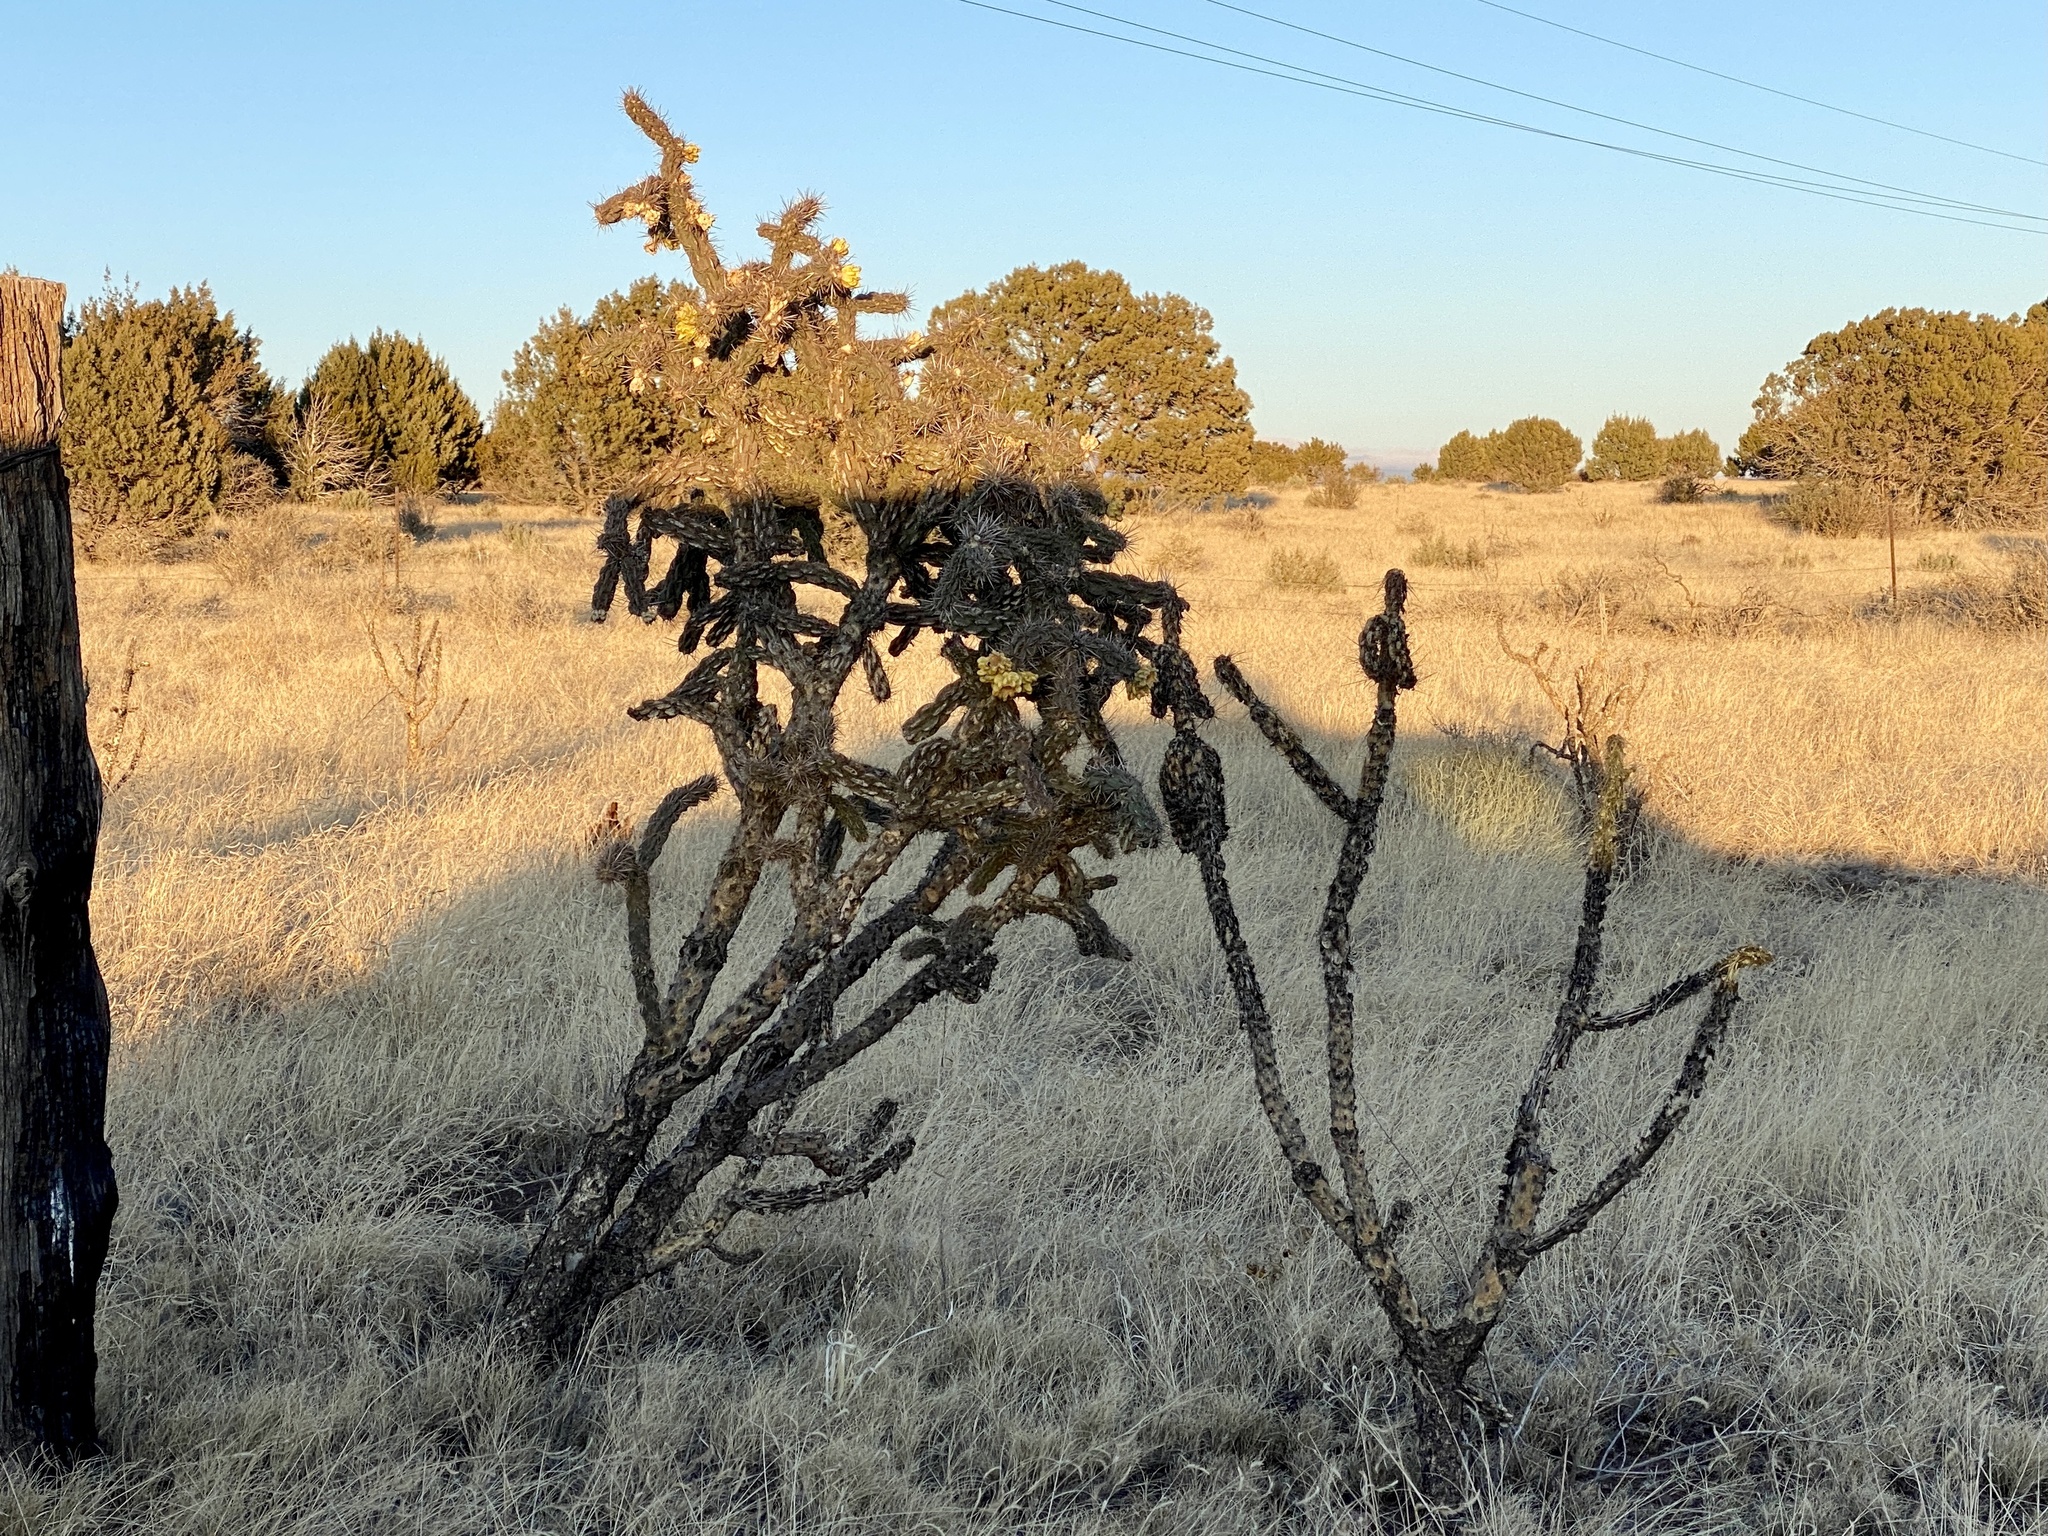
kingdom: Plantae
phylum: Tracheophyta
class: Magnoliopsida
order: Caryophyllales
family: Cactaceae
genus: Cylindropuntia
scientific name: Cylindropuntia imbricata
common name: Candelabrum cactus
